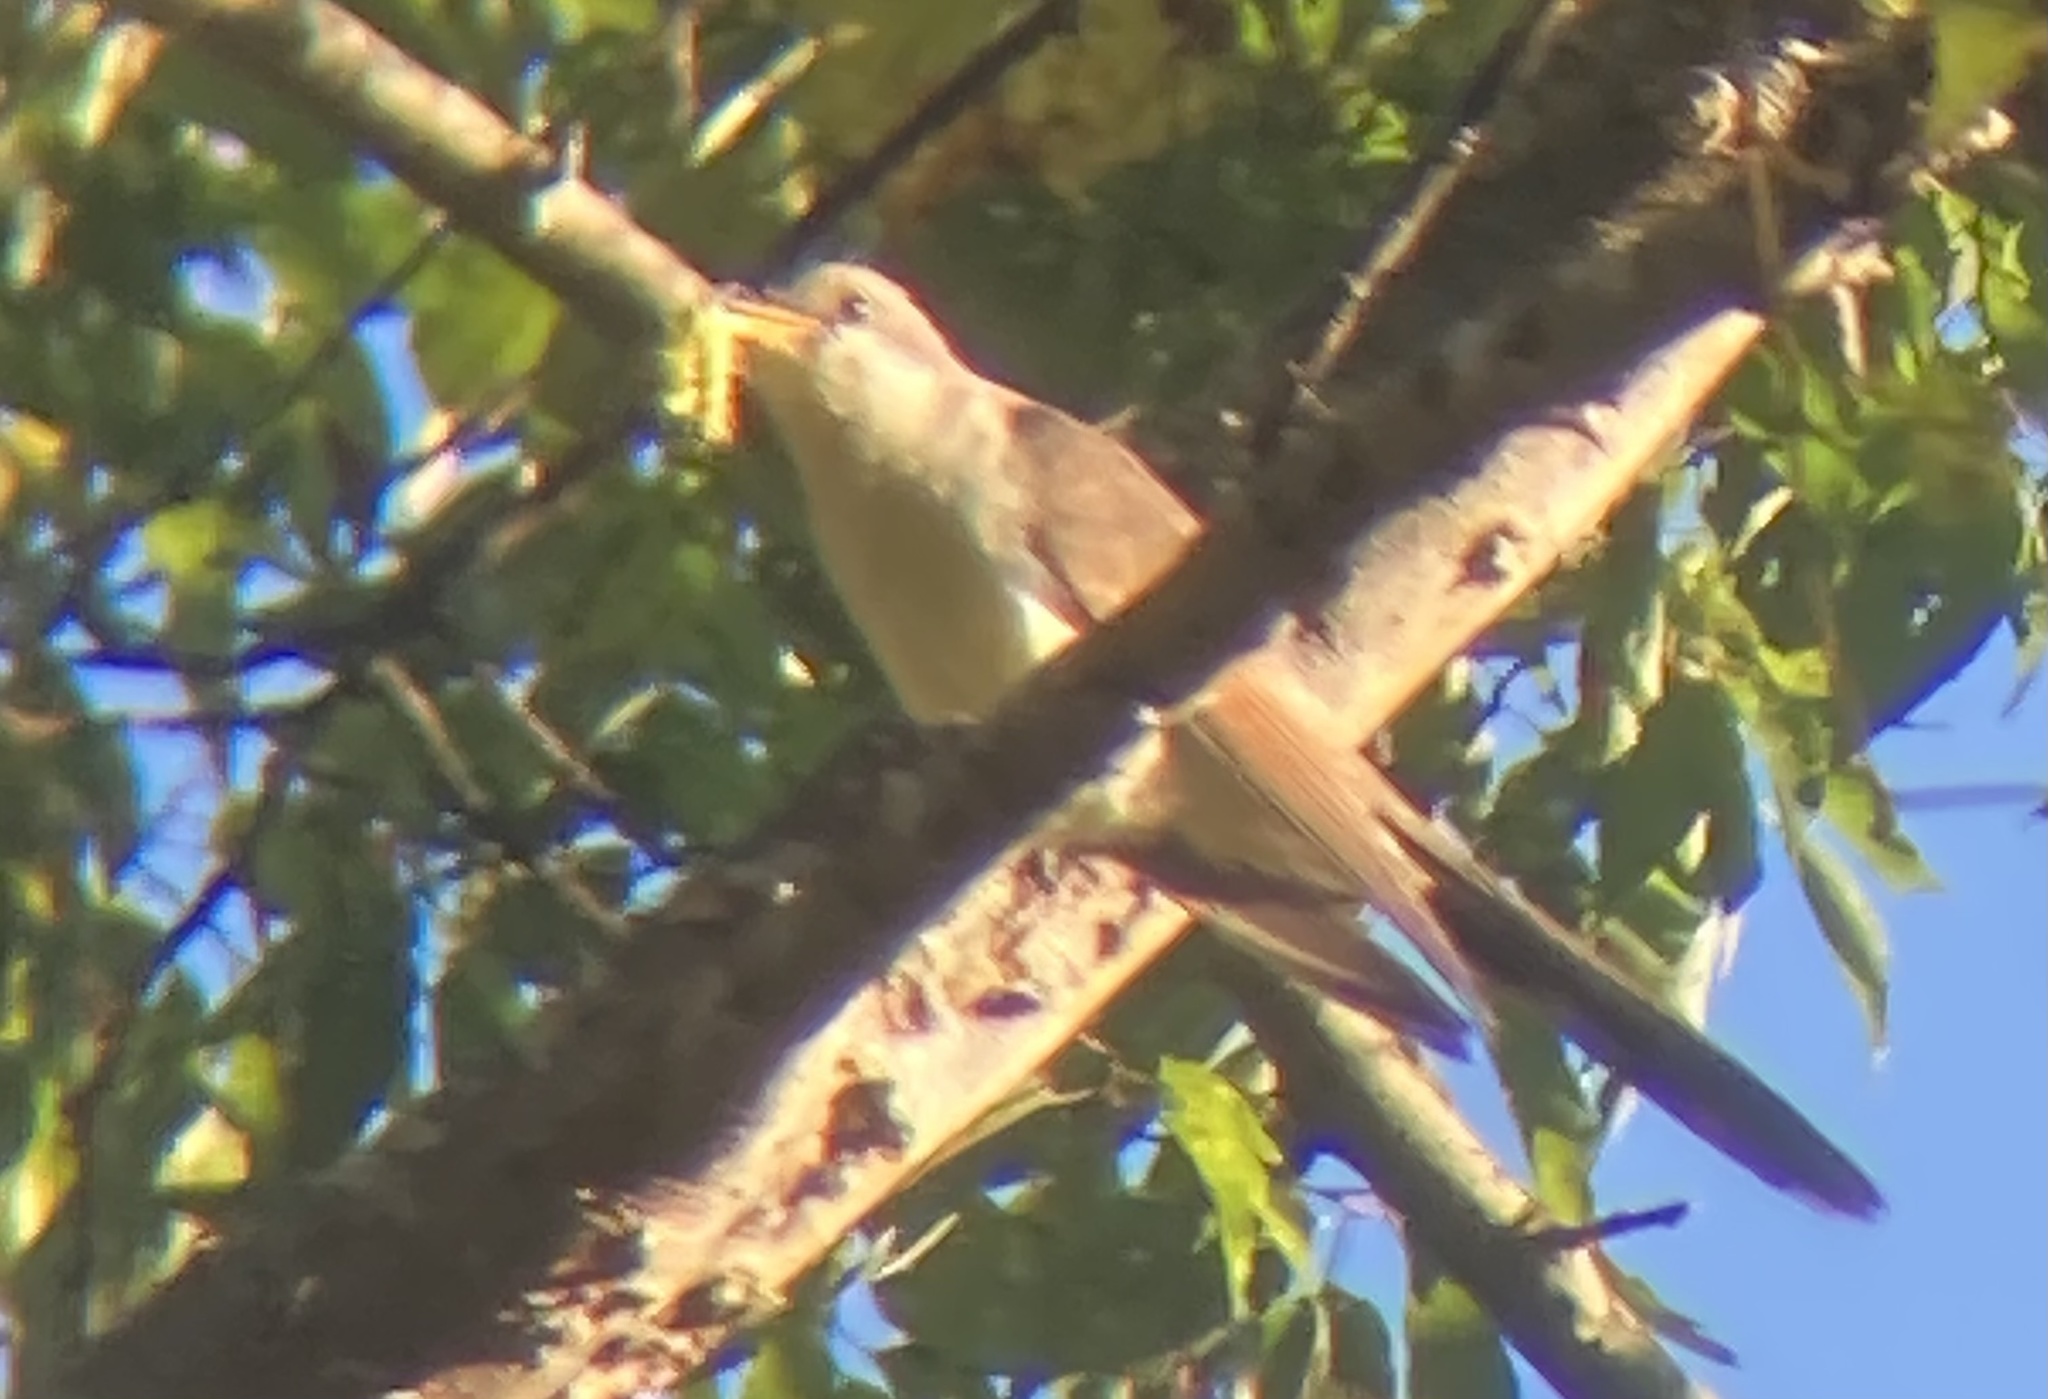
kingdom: Animalia
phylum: Chordata
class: Aves
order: Cuculiformes
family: Cuculidae
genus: Coccyzus
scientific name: Coccyzus americanus
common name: Yellow-billed cuckoo
